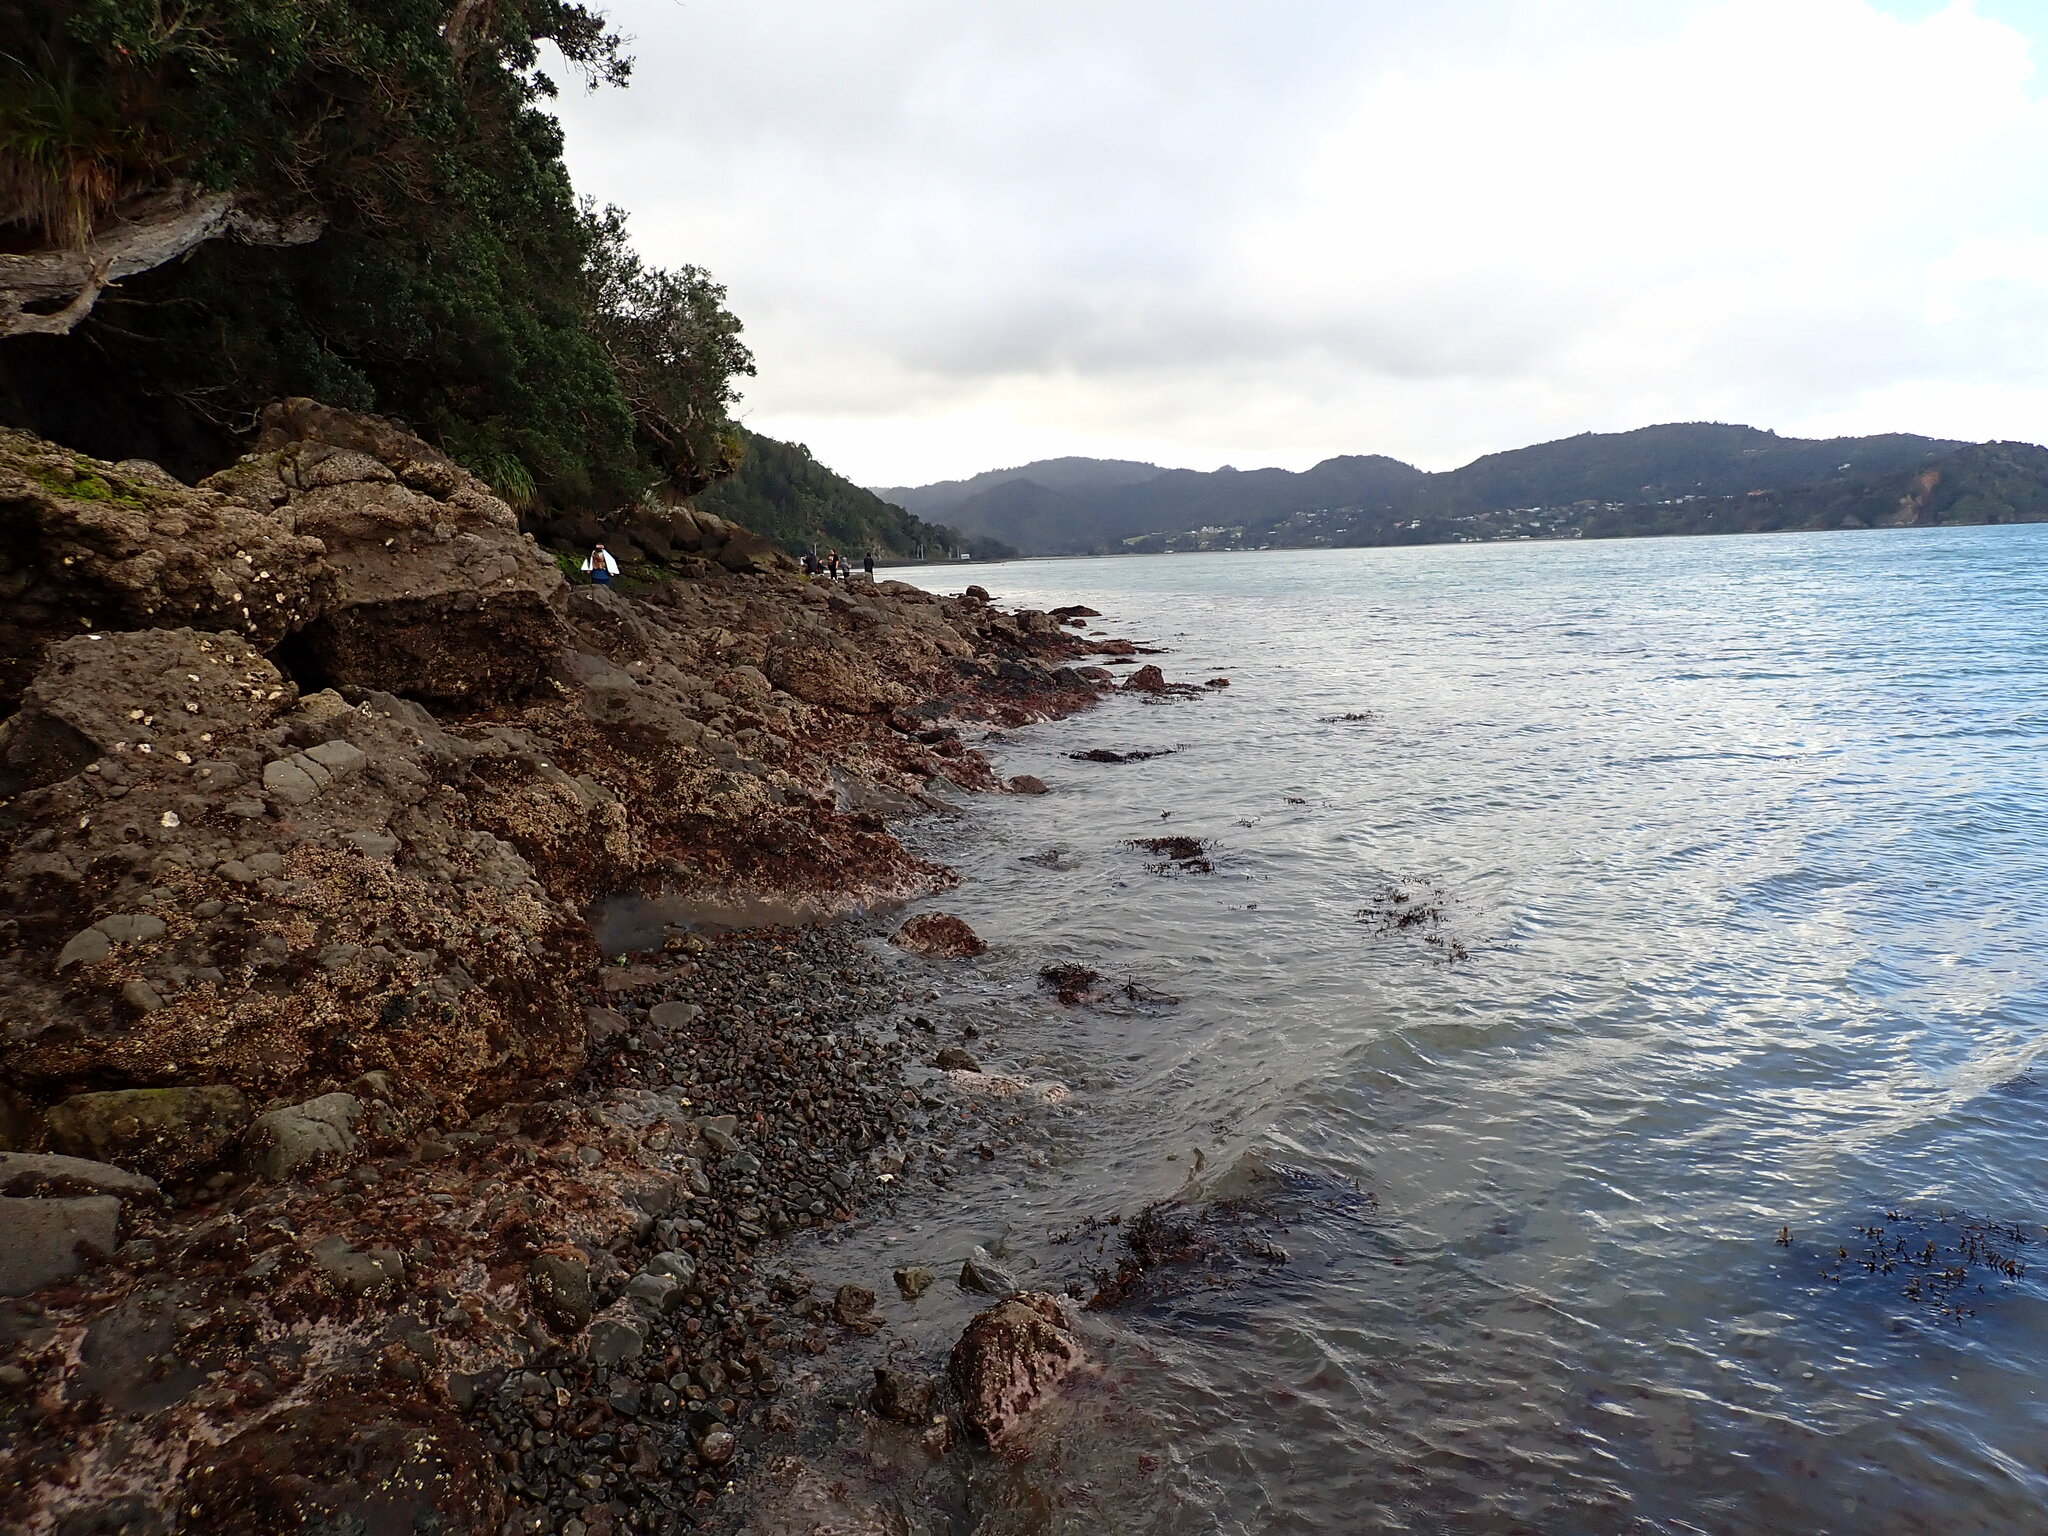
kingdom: Animalia
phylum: Mollusca
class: Gastropoda
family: Nacellidae
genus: Cellana
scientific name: Cellana radians
